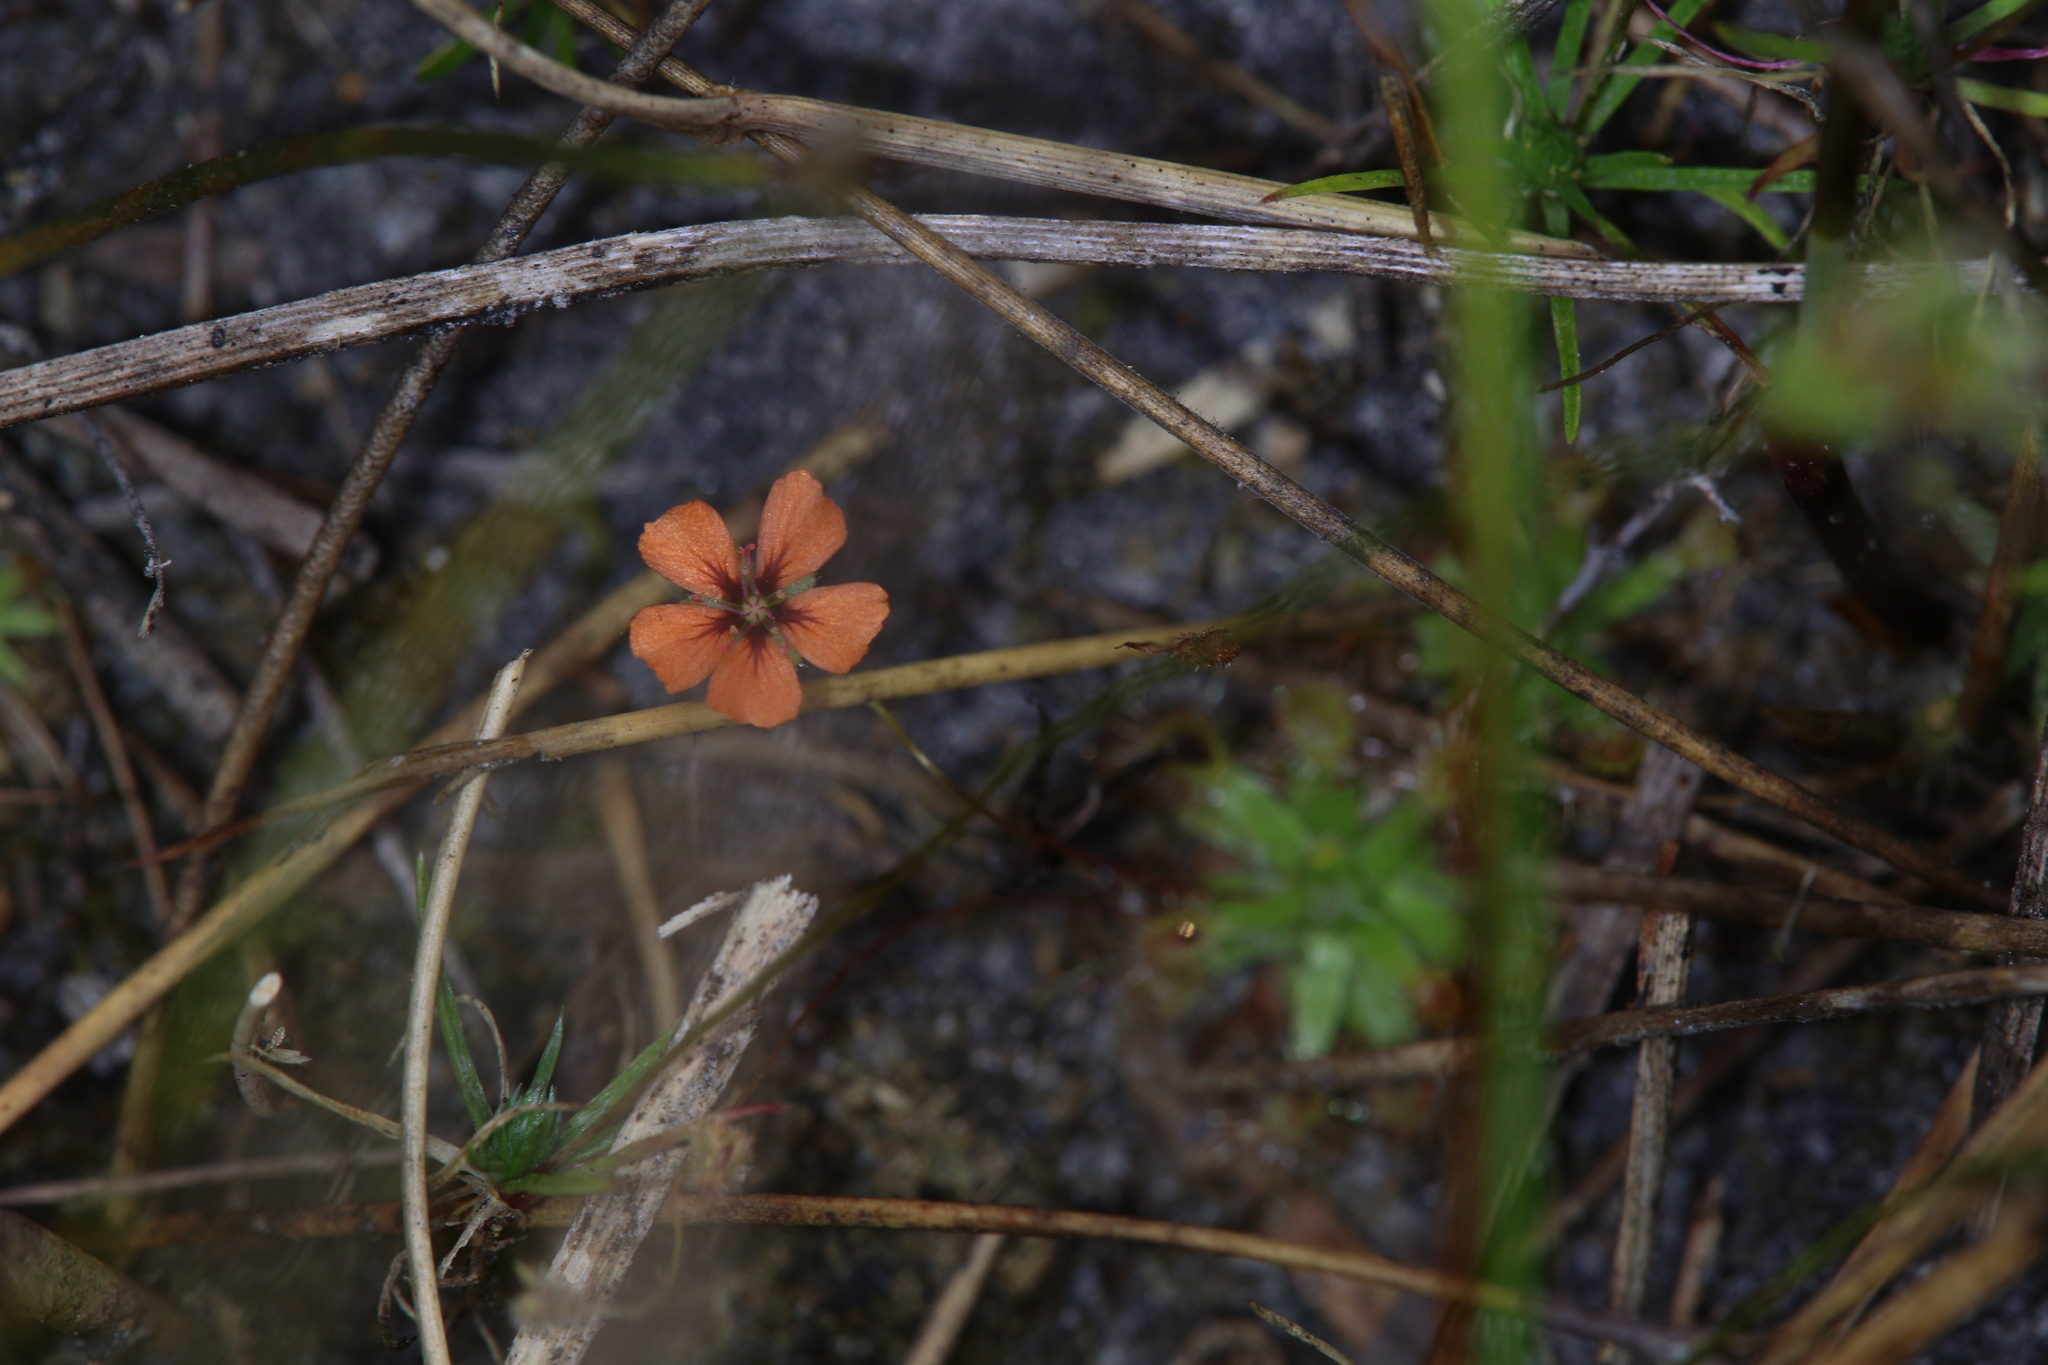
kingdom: Plantae
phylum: Tracheophyta
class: Magnoliopsida
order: Caryophyllales
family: Droseraceae
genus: Drosera
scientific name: Drosera pulchella
